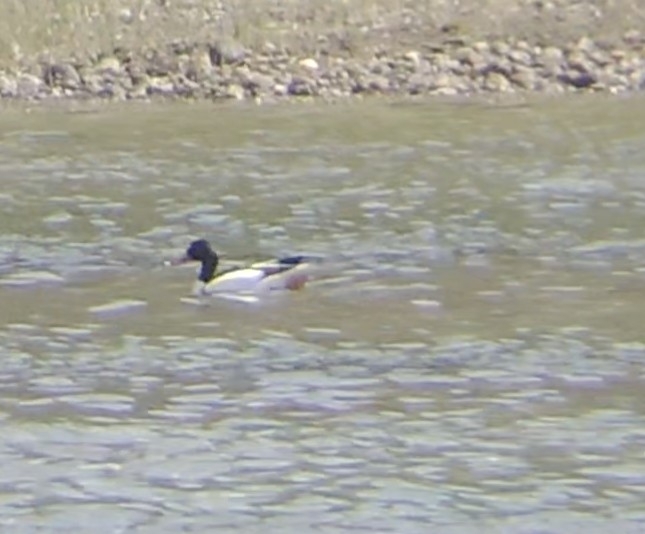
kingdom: Animalia
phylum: Chordata
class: Aves
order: Anseriformes
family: Anatidae
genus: Tadorna
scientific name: Tadorna tadorna
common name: Common shelduck
